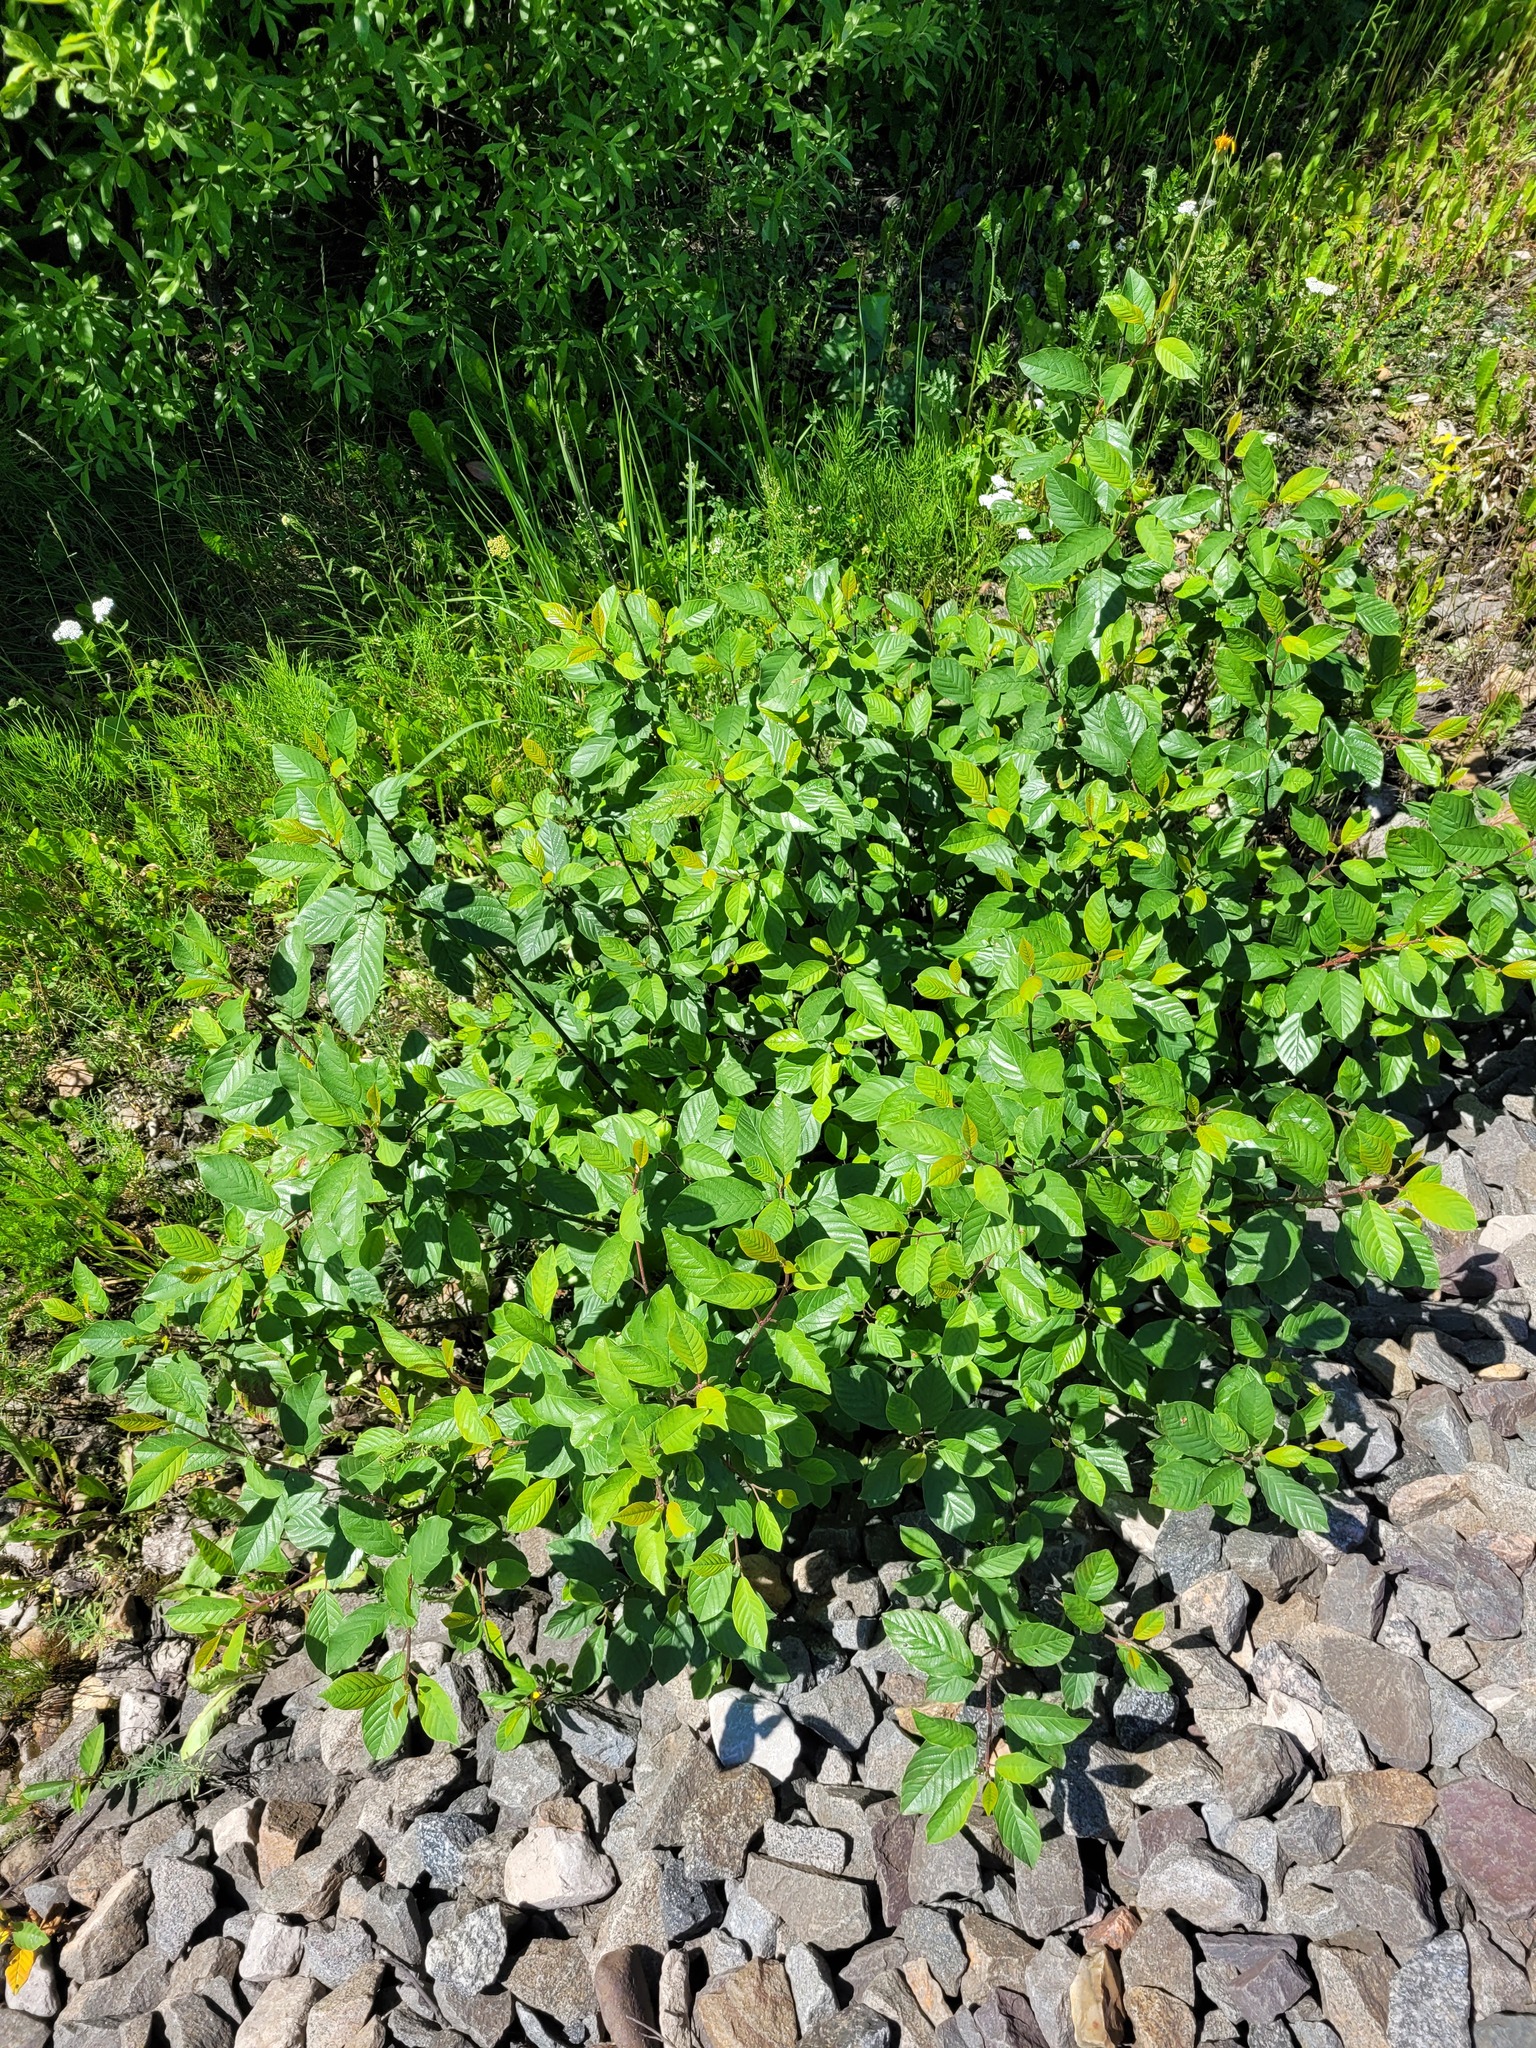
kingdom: Plantae
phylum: Tracheophyta
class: Magnoliopsida
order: Rosales
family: Rhamnaceae
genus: Frangula
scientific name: Frangula alnus
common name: Alder buckthorn
